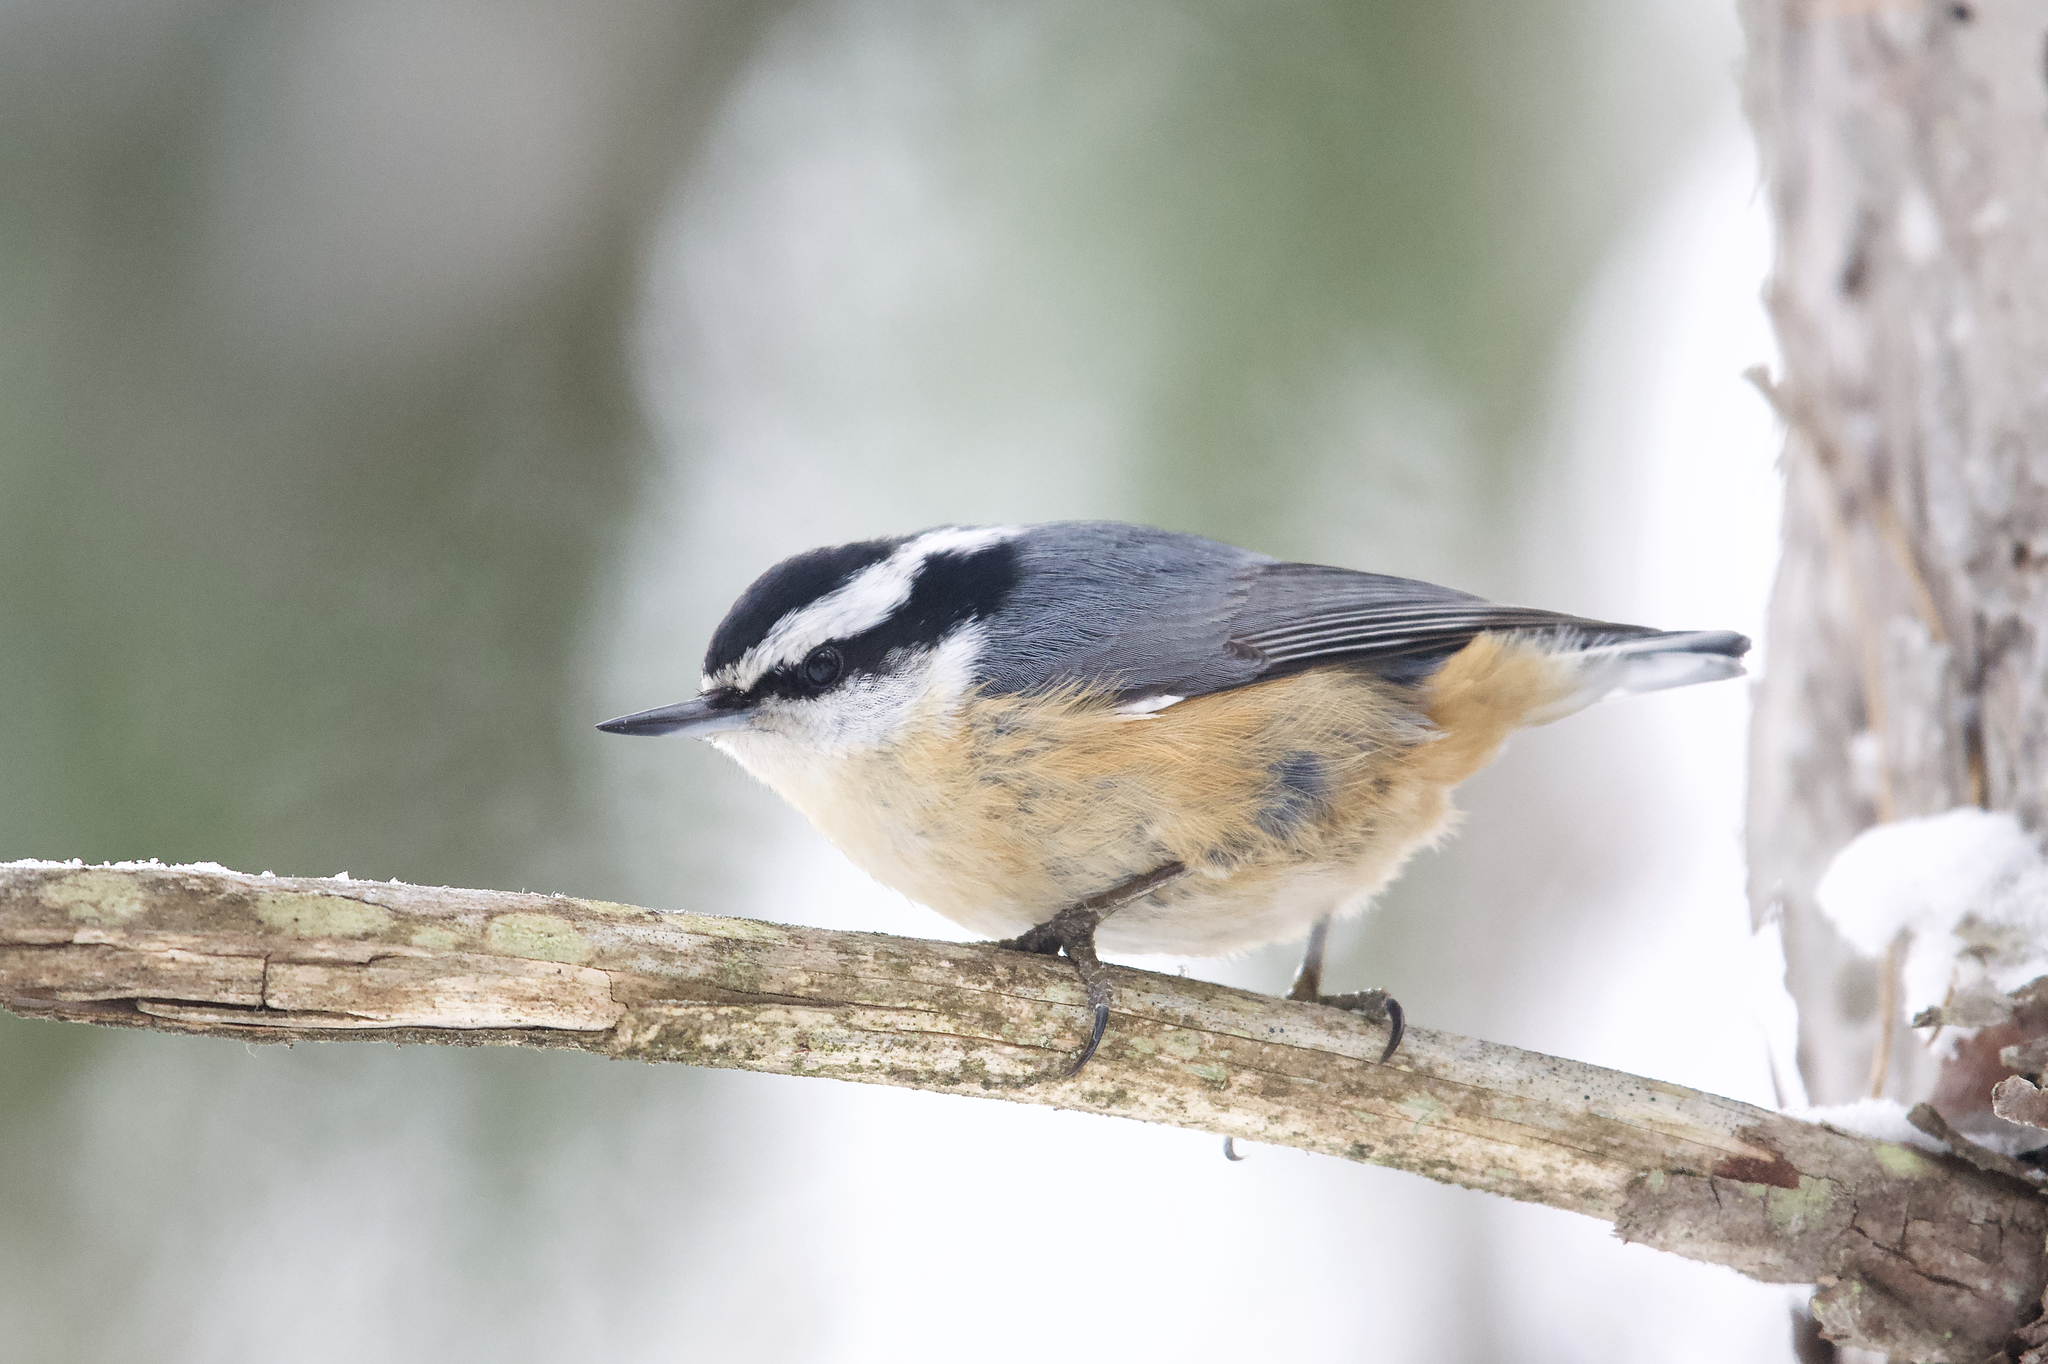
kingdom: Animalia
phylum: Chordata
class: Aves
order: Passeriformes
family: Sittidae
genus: Sitta
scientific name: Sitta canadensis
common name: Red-breasted nuthatch
